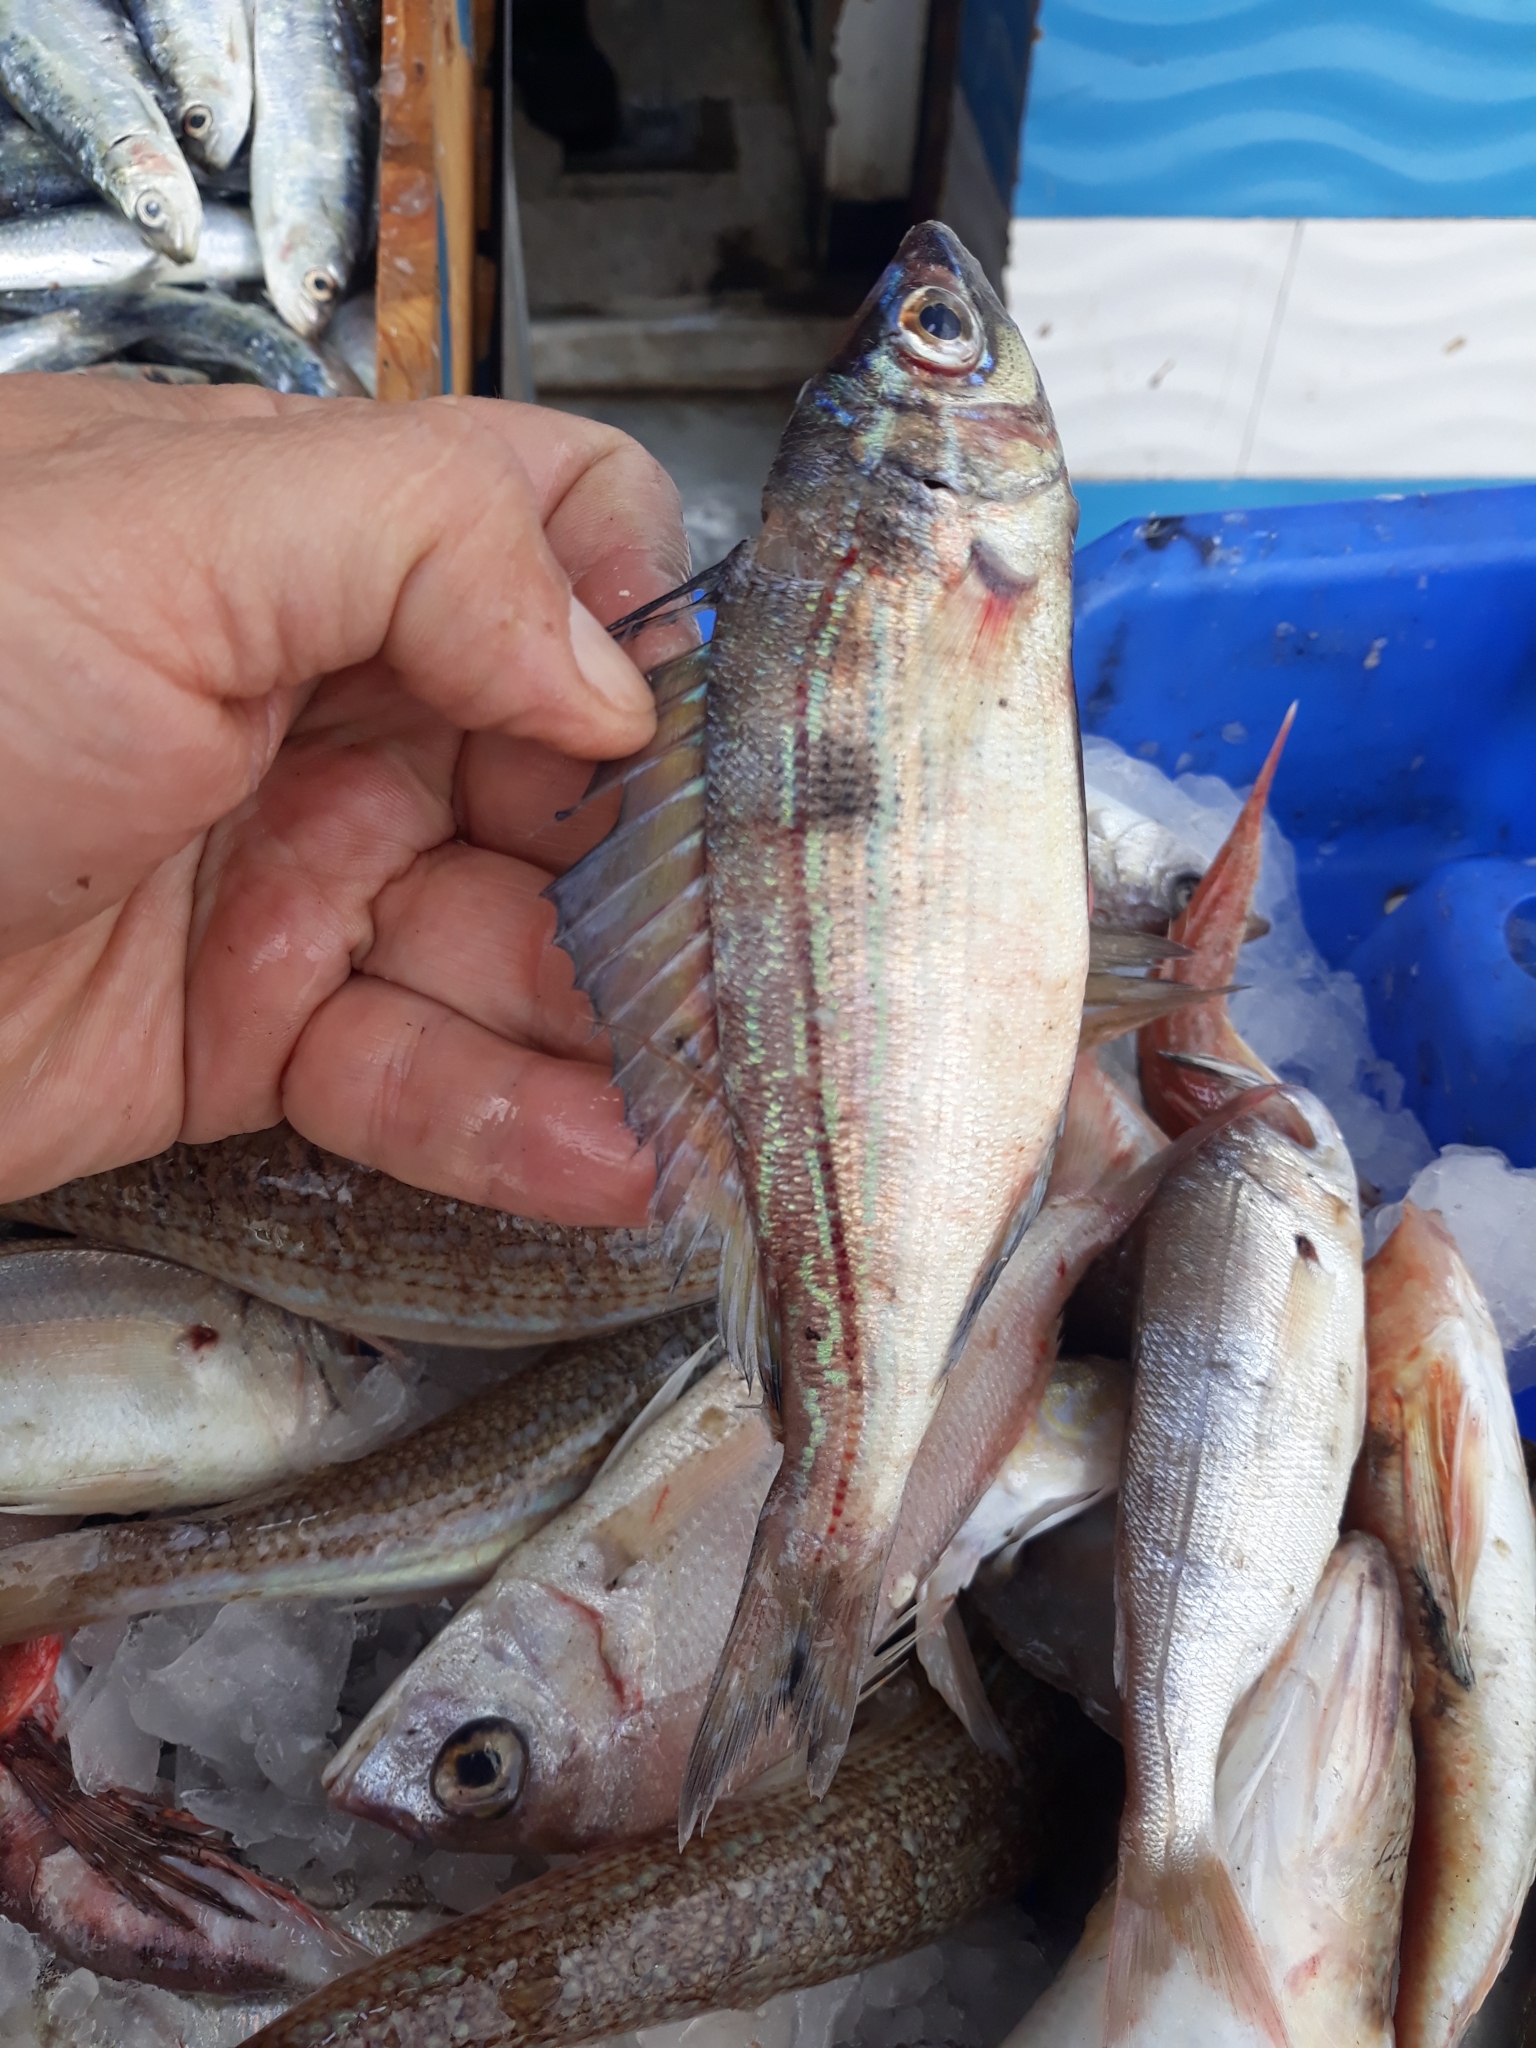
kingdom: Animalia
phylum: Chordata
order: Perciformes
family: Sparidae
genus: Spicara
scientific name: Spicara maena
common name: Blotched picarel
